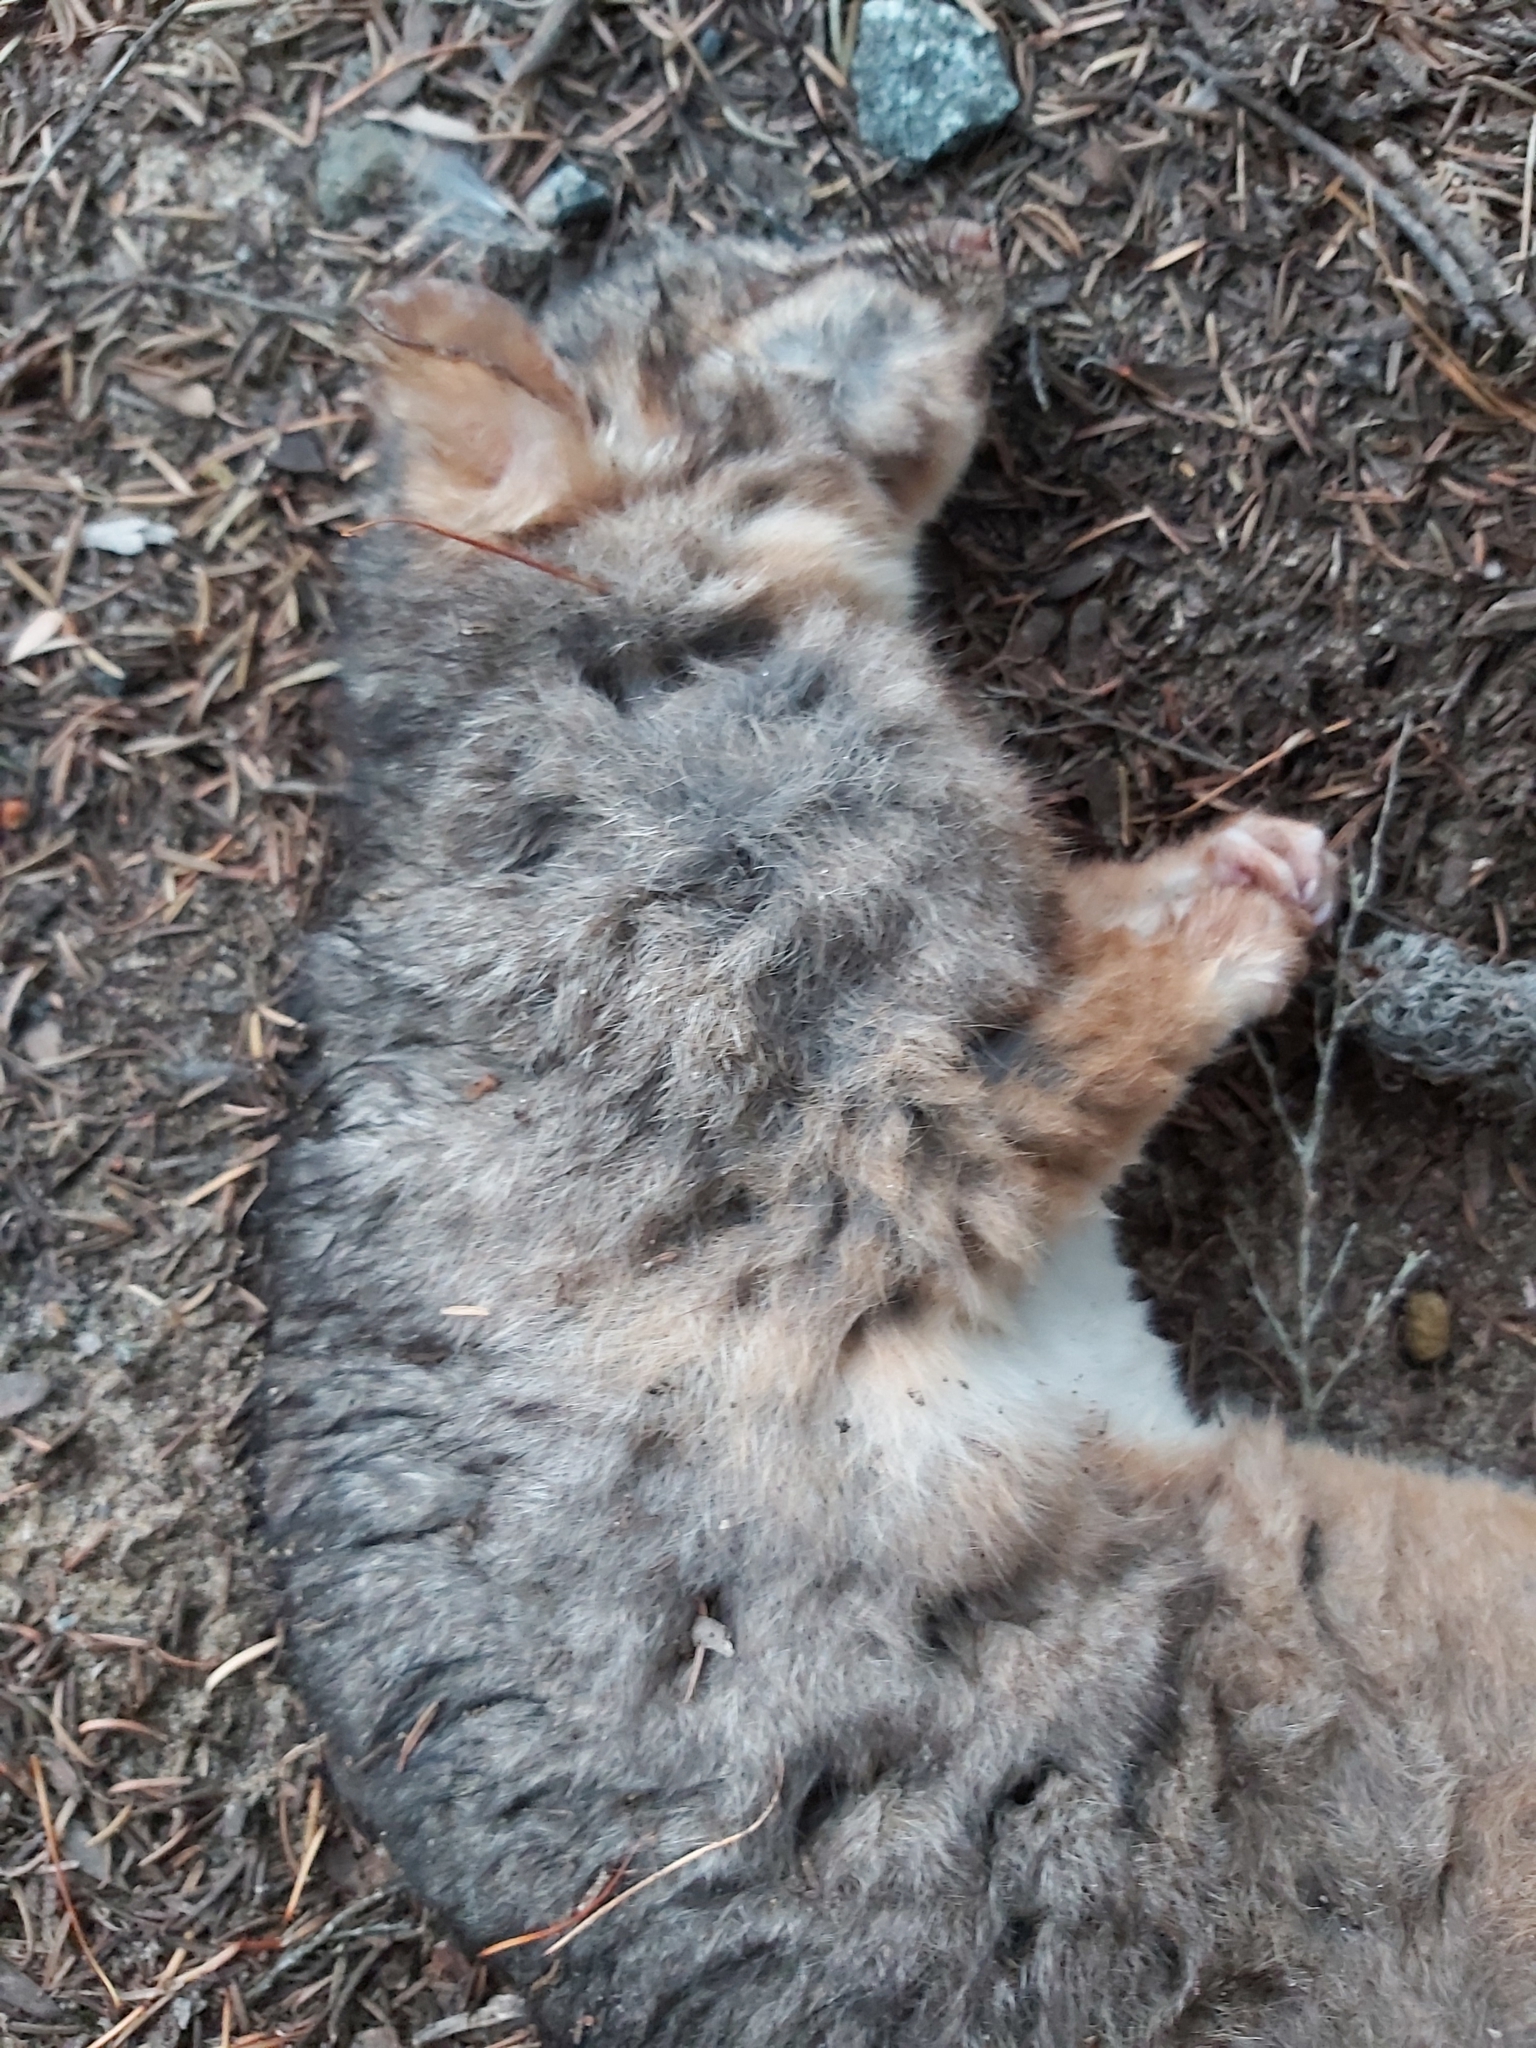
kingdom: Animalia
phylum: Chordata
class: Mammalia
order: Diprotodontia
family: Pseudocheiridae
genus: Pseudocheirus
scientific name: Pseudocheirus peregrinus
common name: Common ringtail possum
